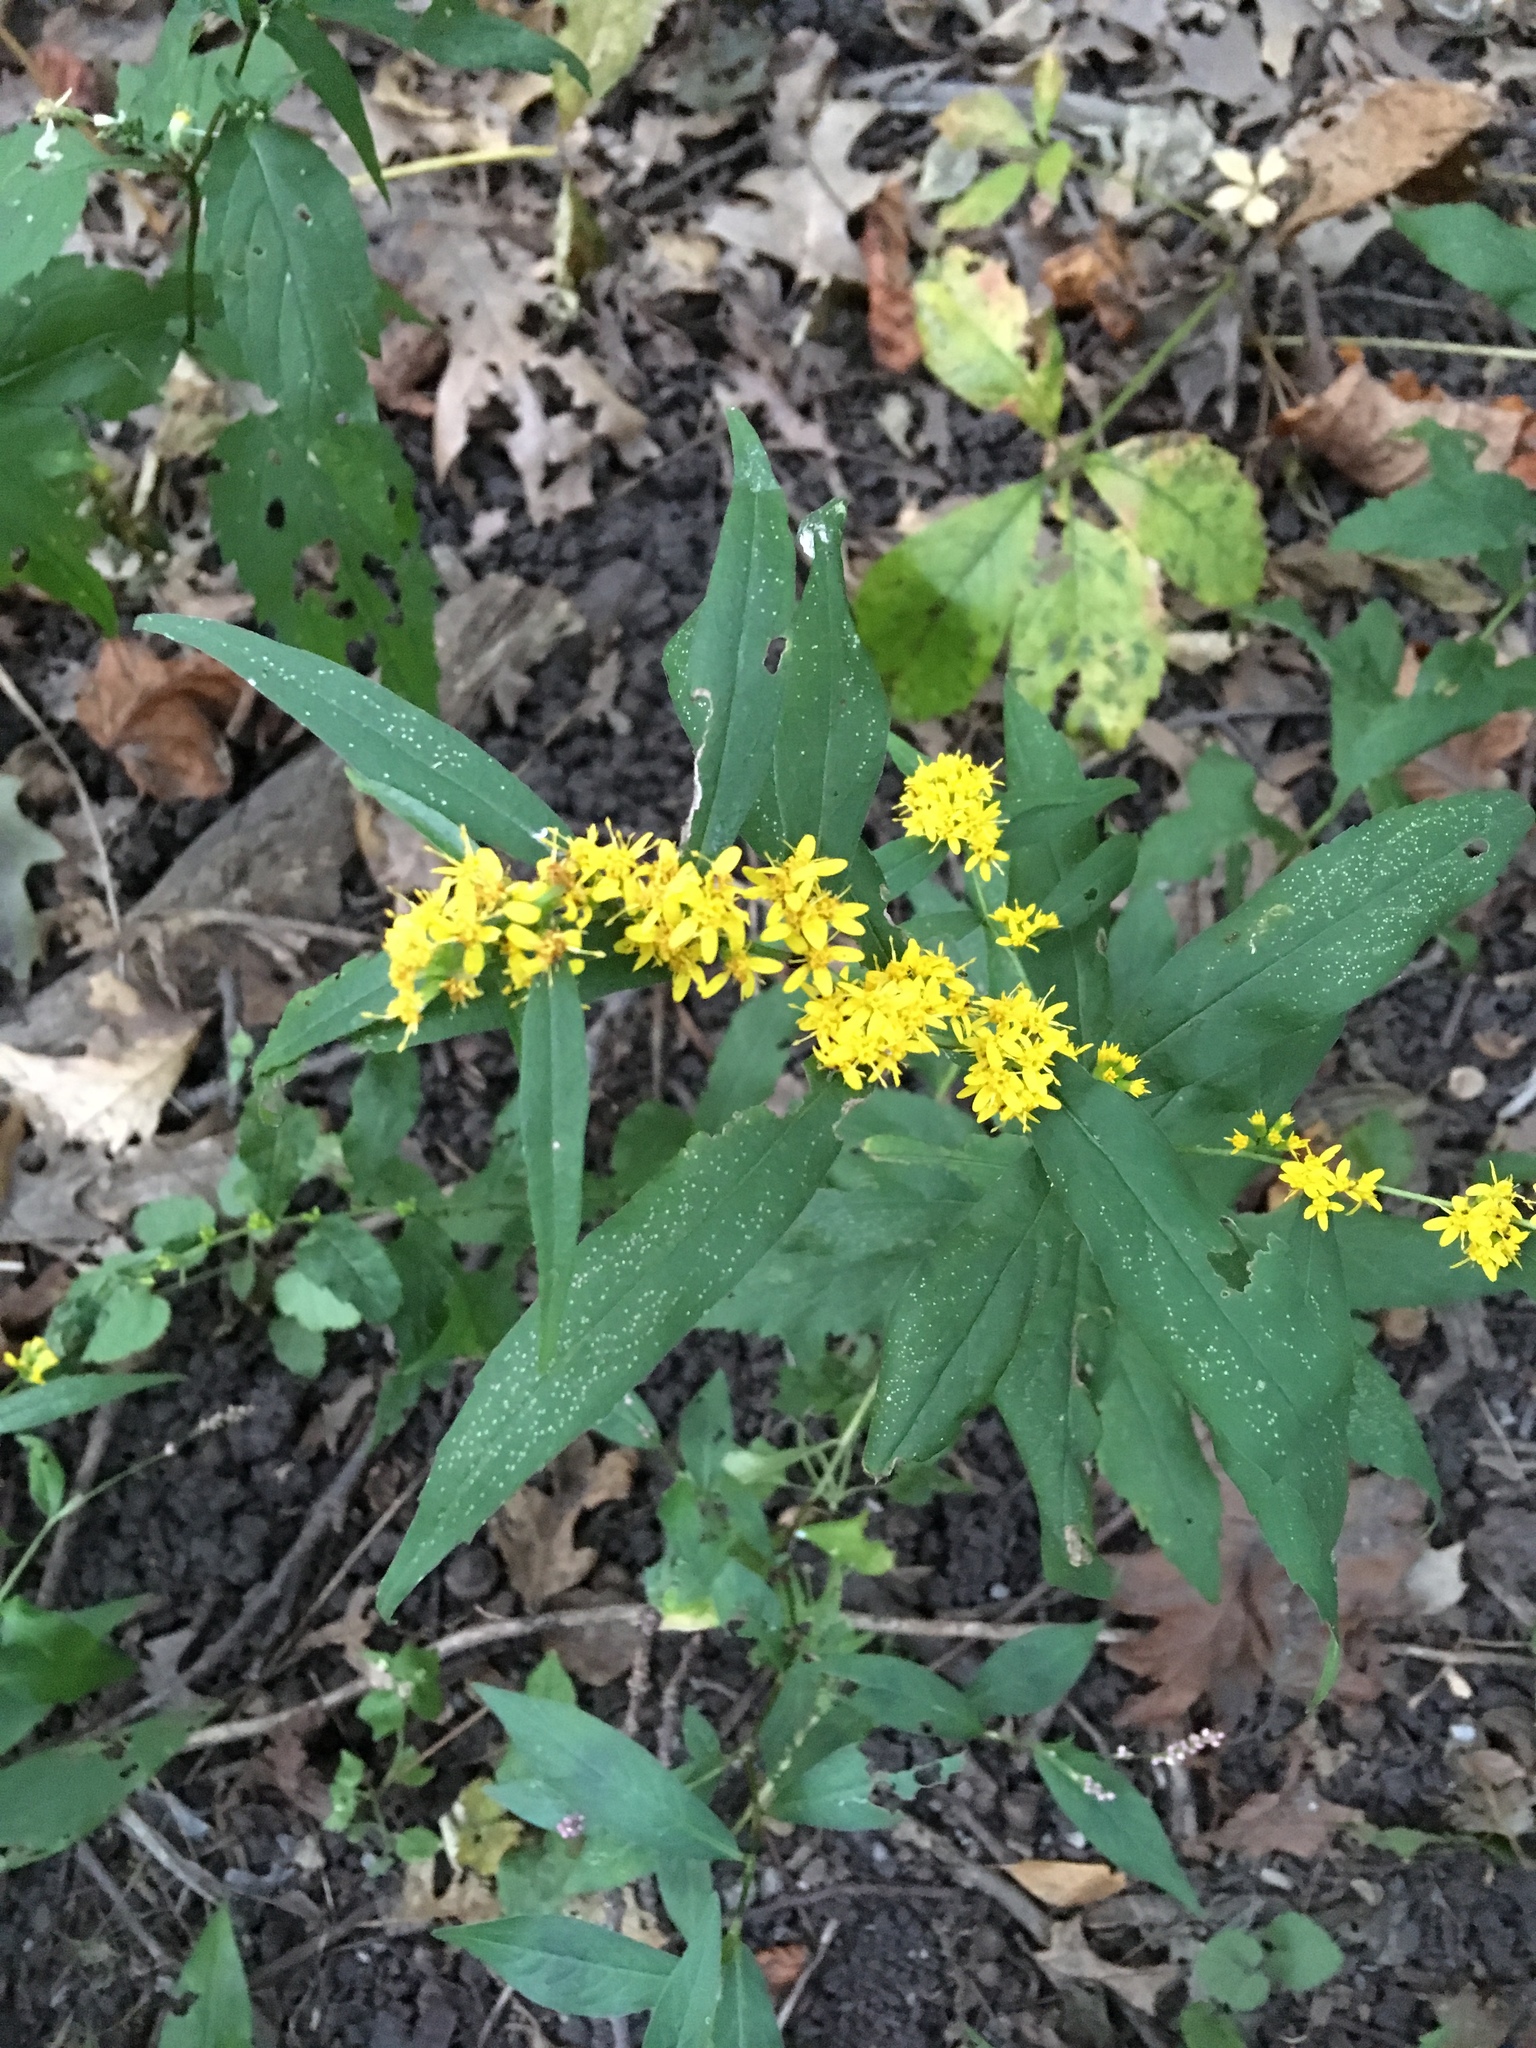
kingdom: Plantae
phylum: Tracheophyta
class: Magnoliopsida
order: Asterales
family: Asteraceae
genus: Solidago
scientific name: Solidago caesia
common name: Woodland goldenrod
